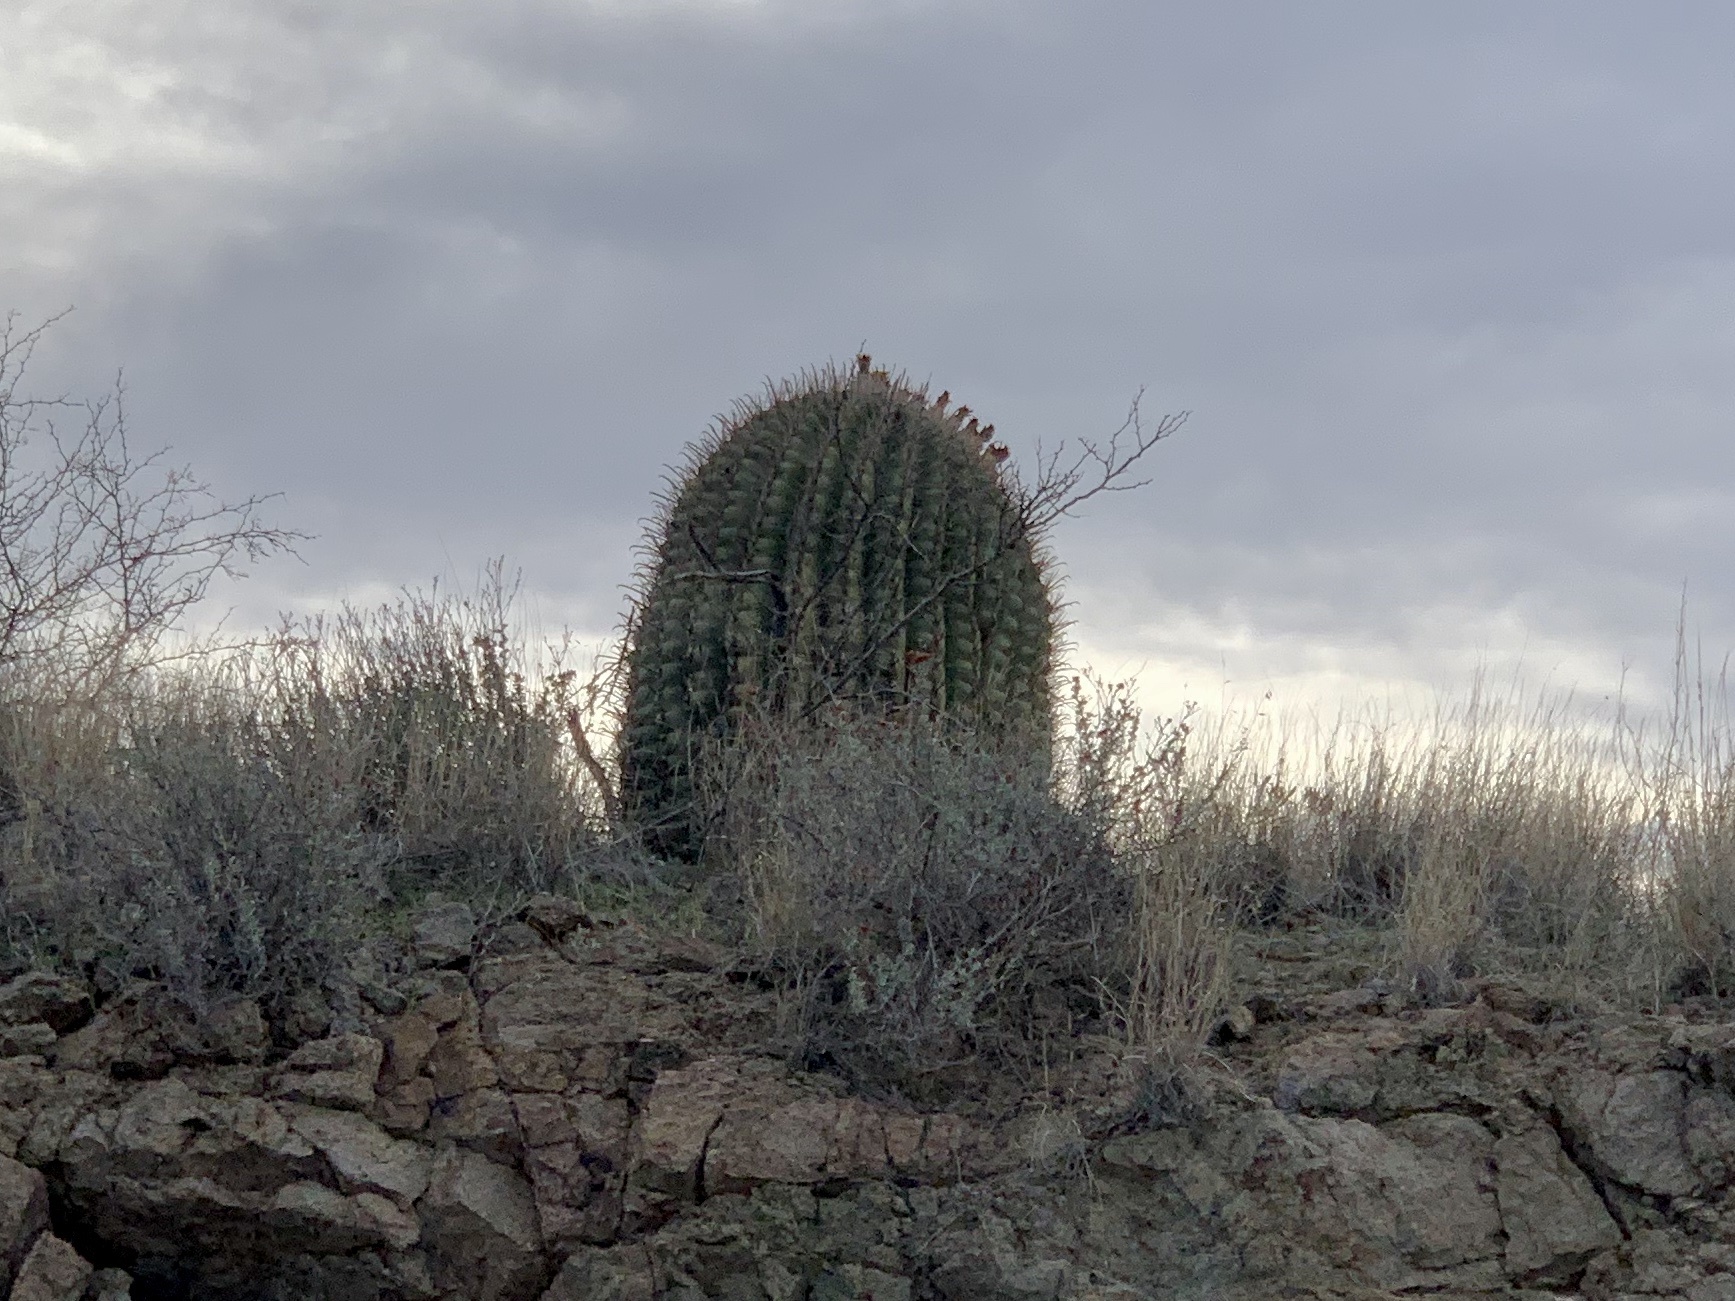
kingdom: Plantae
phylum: Tracheophyta
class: Magnoliopsida
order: Caryophyllales
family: Cactaceae
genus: Ferocactus
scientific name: Ferocactus wislizeni
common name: Candy barrel cactus
